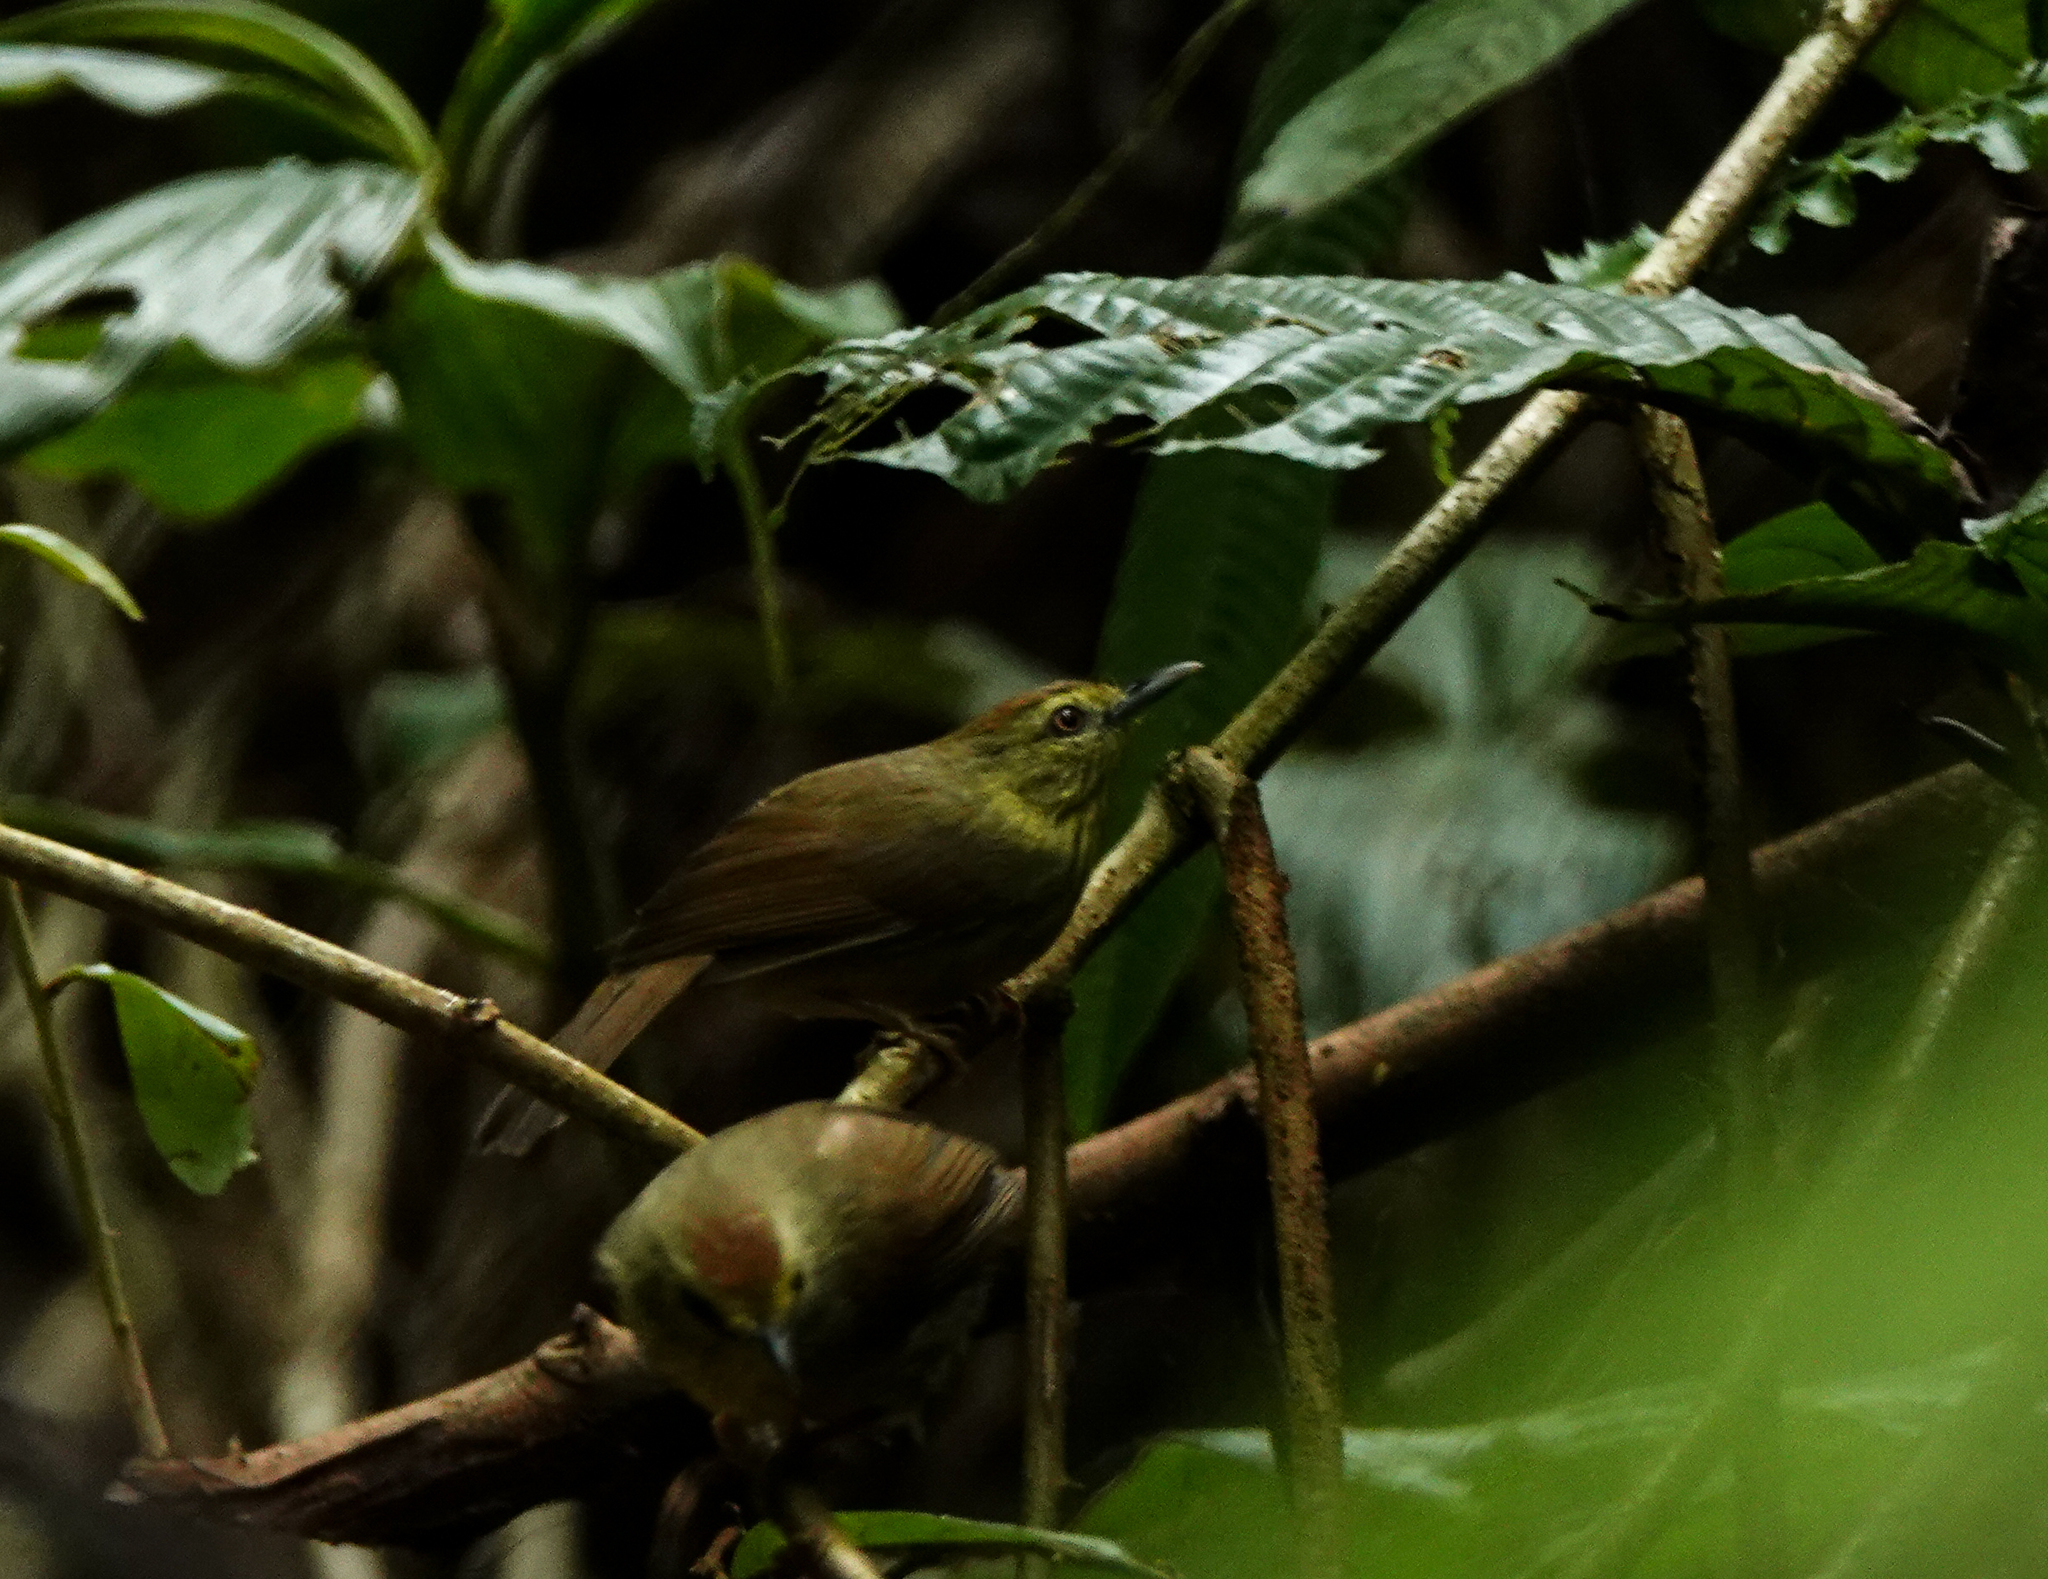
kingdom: Animalia
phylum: Chordata
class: Aves
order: Passeriformes
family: Timaliidae
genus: Macronus
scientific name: Macronus gularis
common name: Striped tit-babbler
